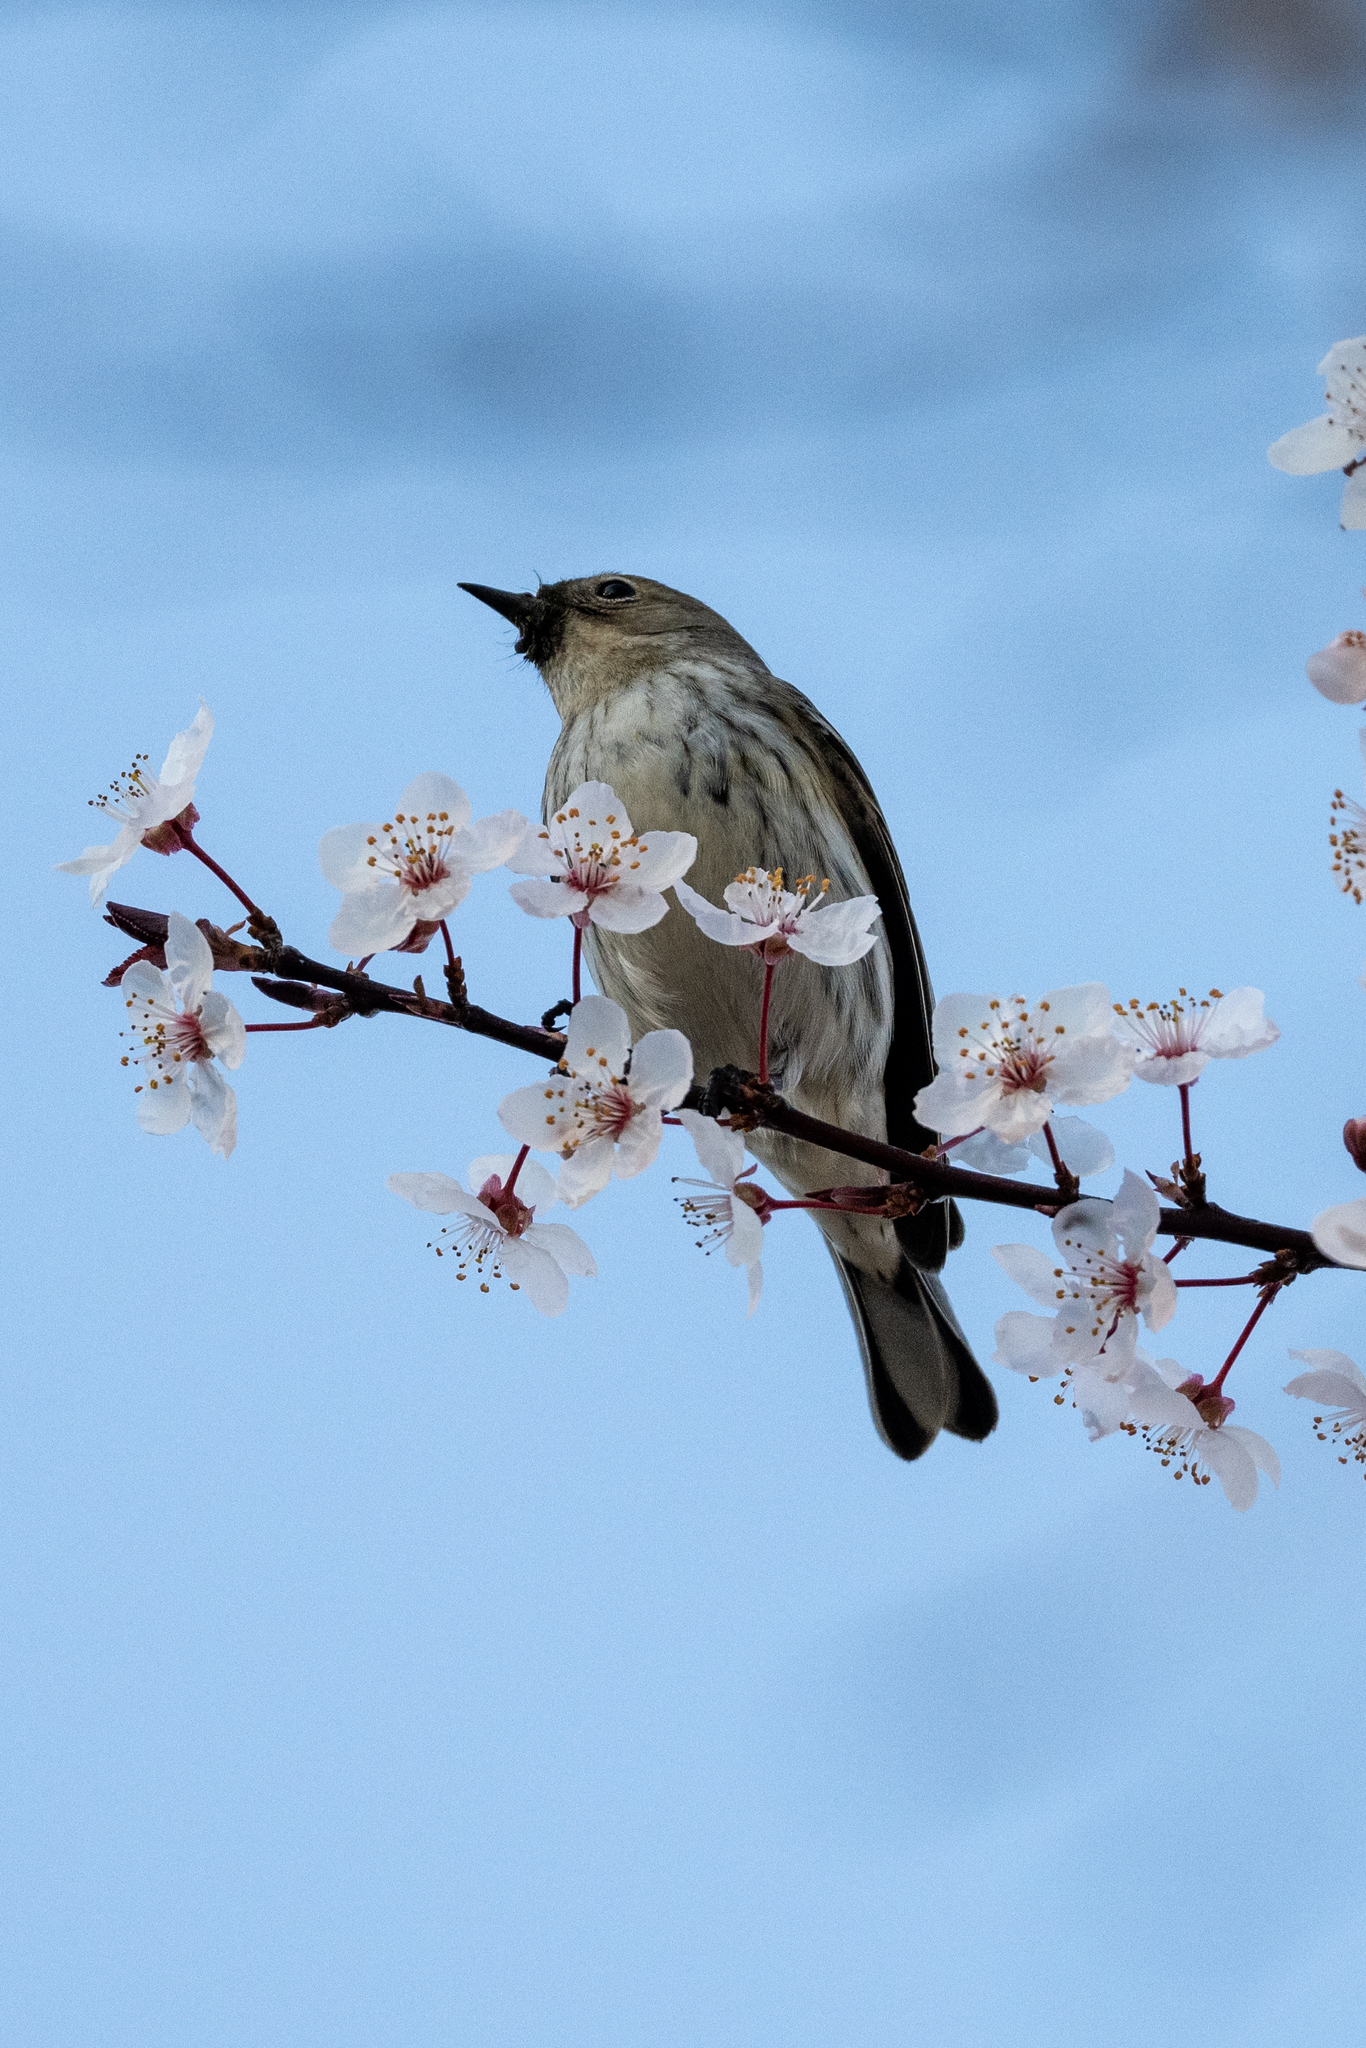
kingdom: Animalia
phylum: Chordata
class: Aves
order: Passeriformes
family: Parulidae
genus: Setophaga
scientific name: Setophaga coronata
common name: Myrtle warbler
